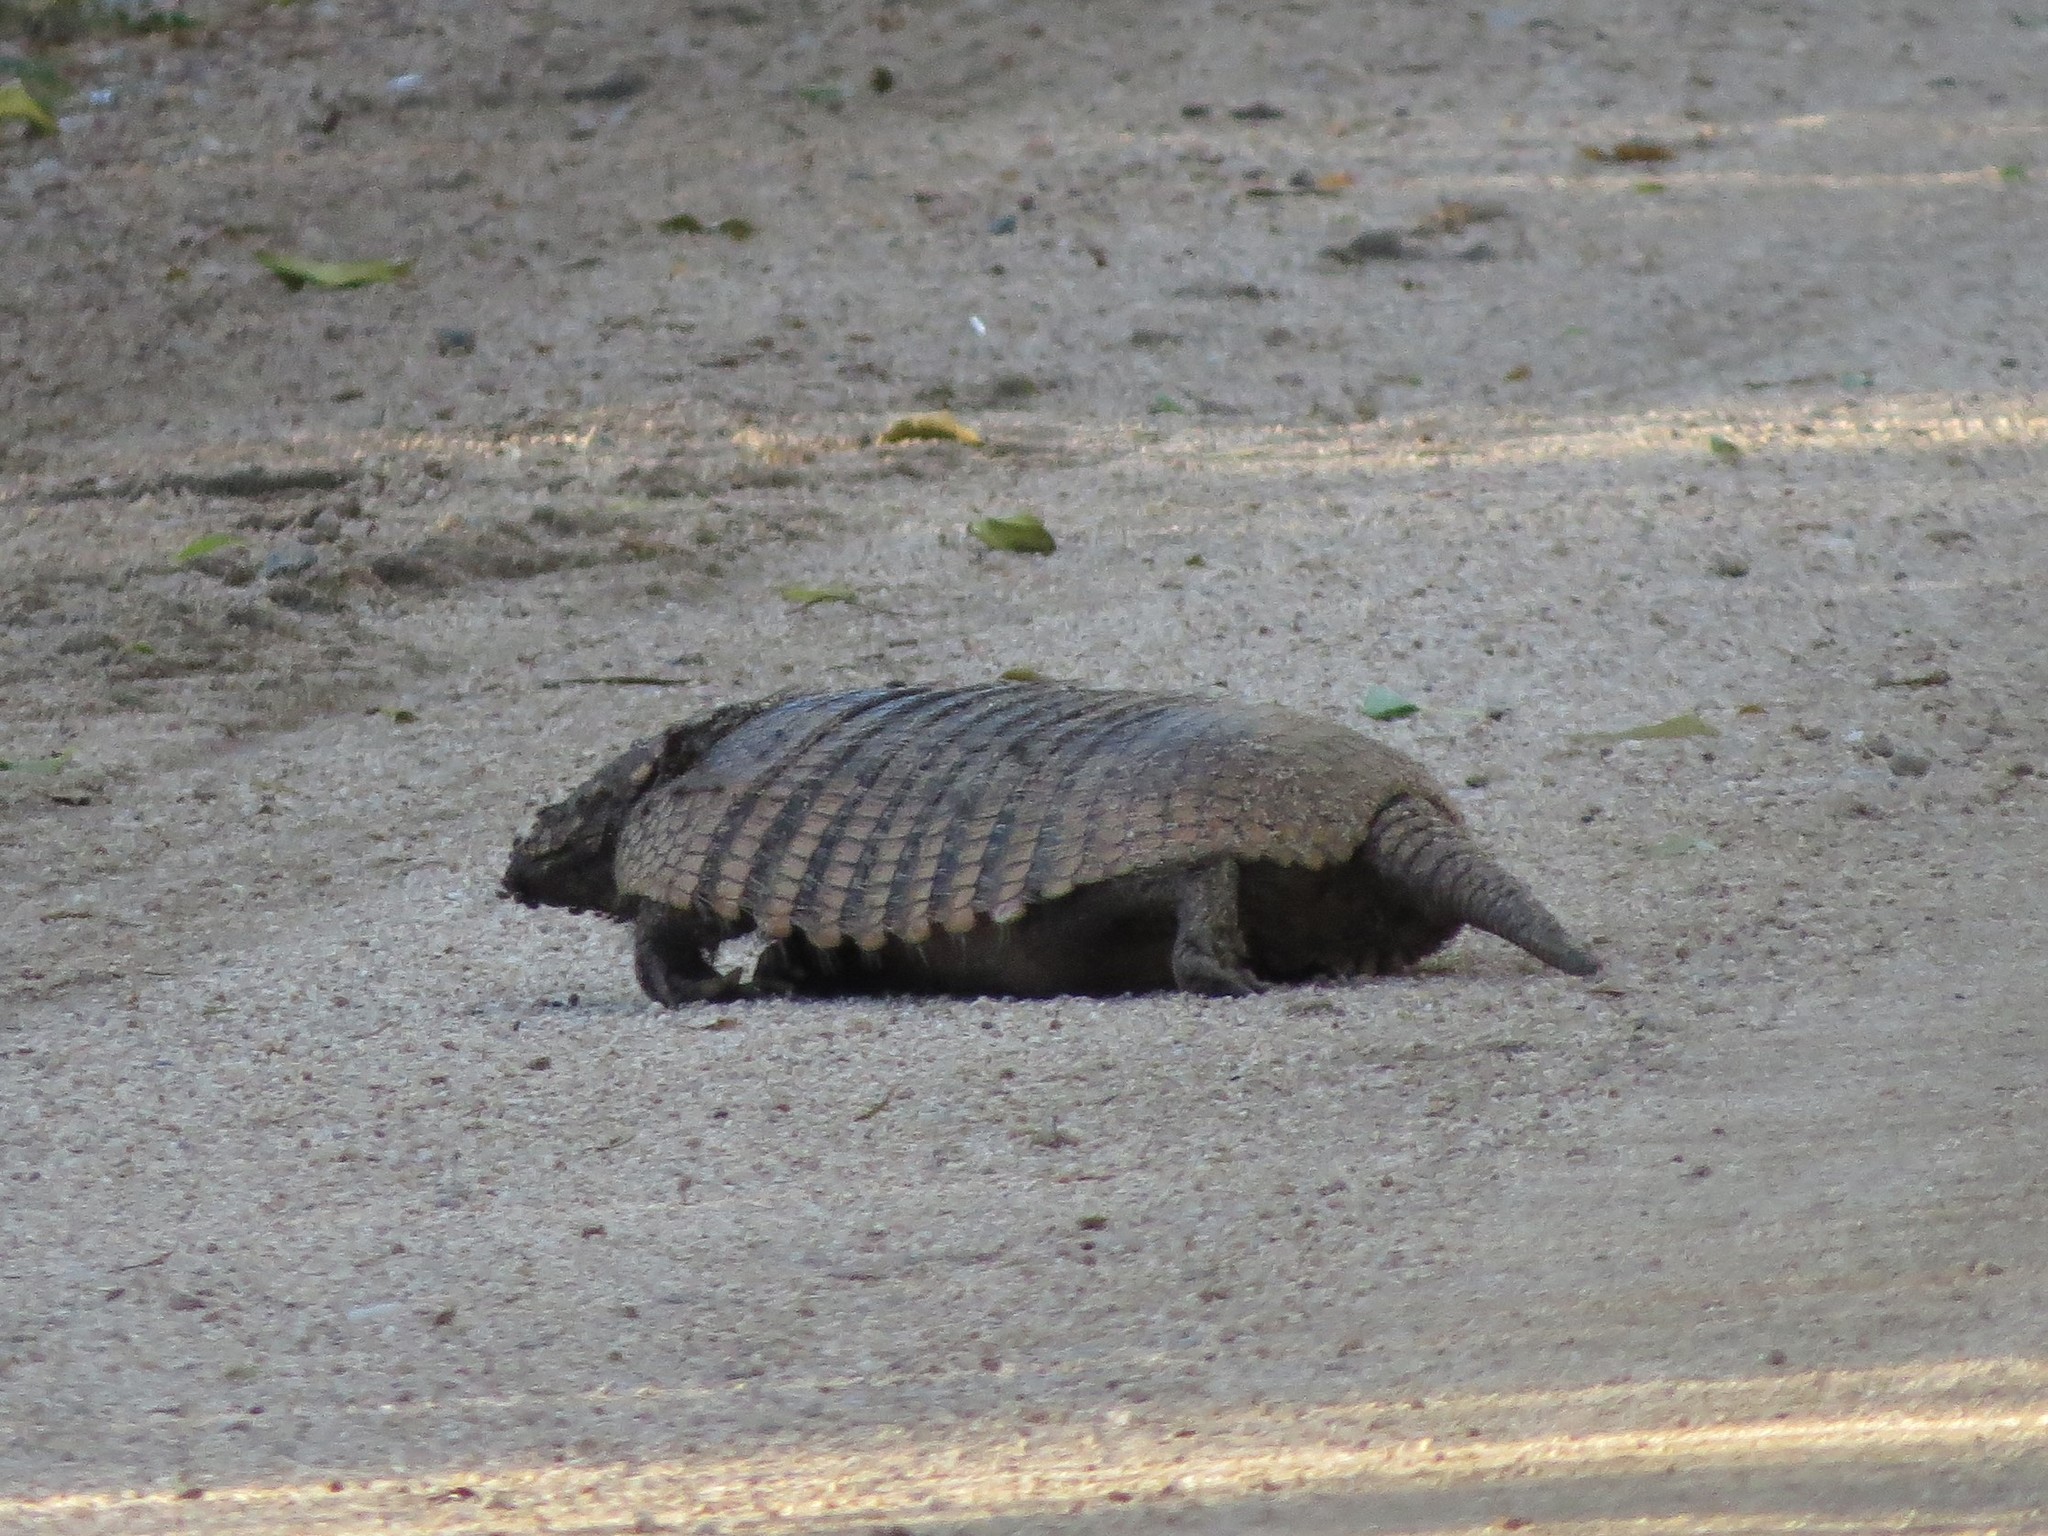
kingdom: Animalia
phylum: Chordata
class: Mammalia
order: Cingulata
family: Dasypodidae
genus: Euphractus
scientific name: Euphractus sexcinctus
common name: Six-banded armadillo
